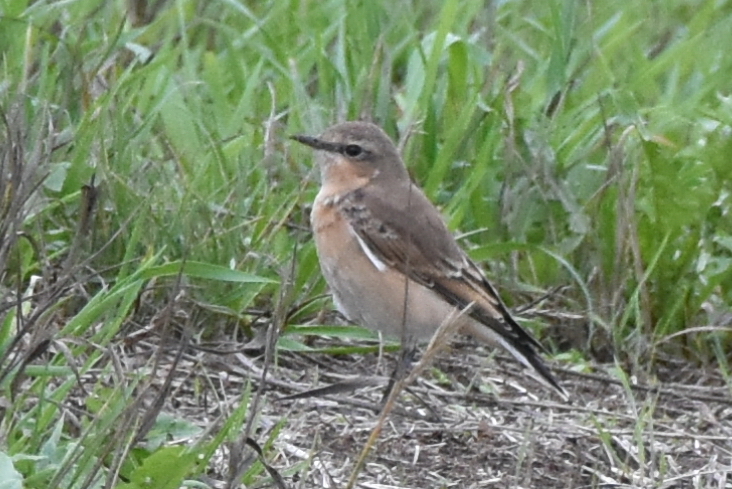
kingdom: Animalia
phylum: Chordata
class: Aves
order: Passeriformes
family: Muscicapidae
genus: Oenanthe
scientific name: Oenanthe oenanthe
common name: Northern wheatear
